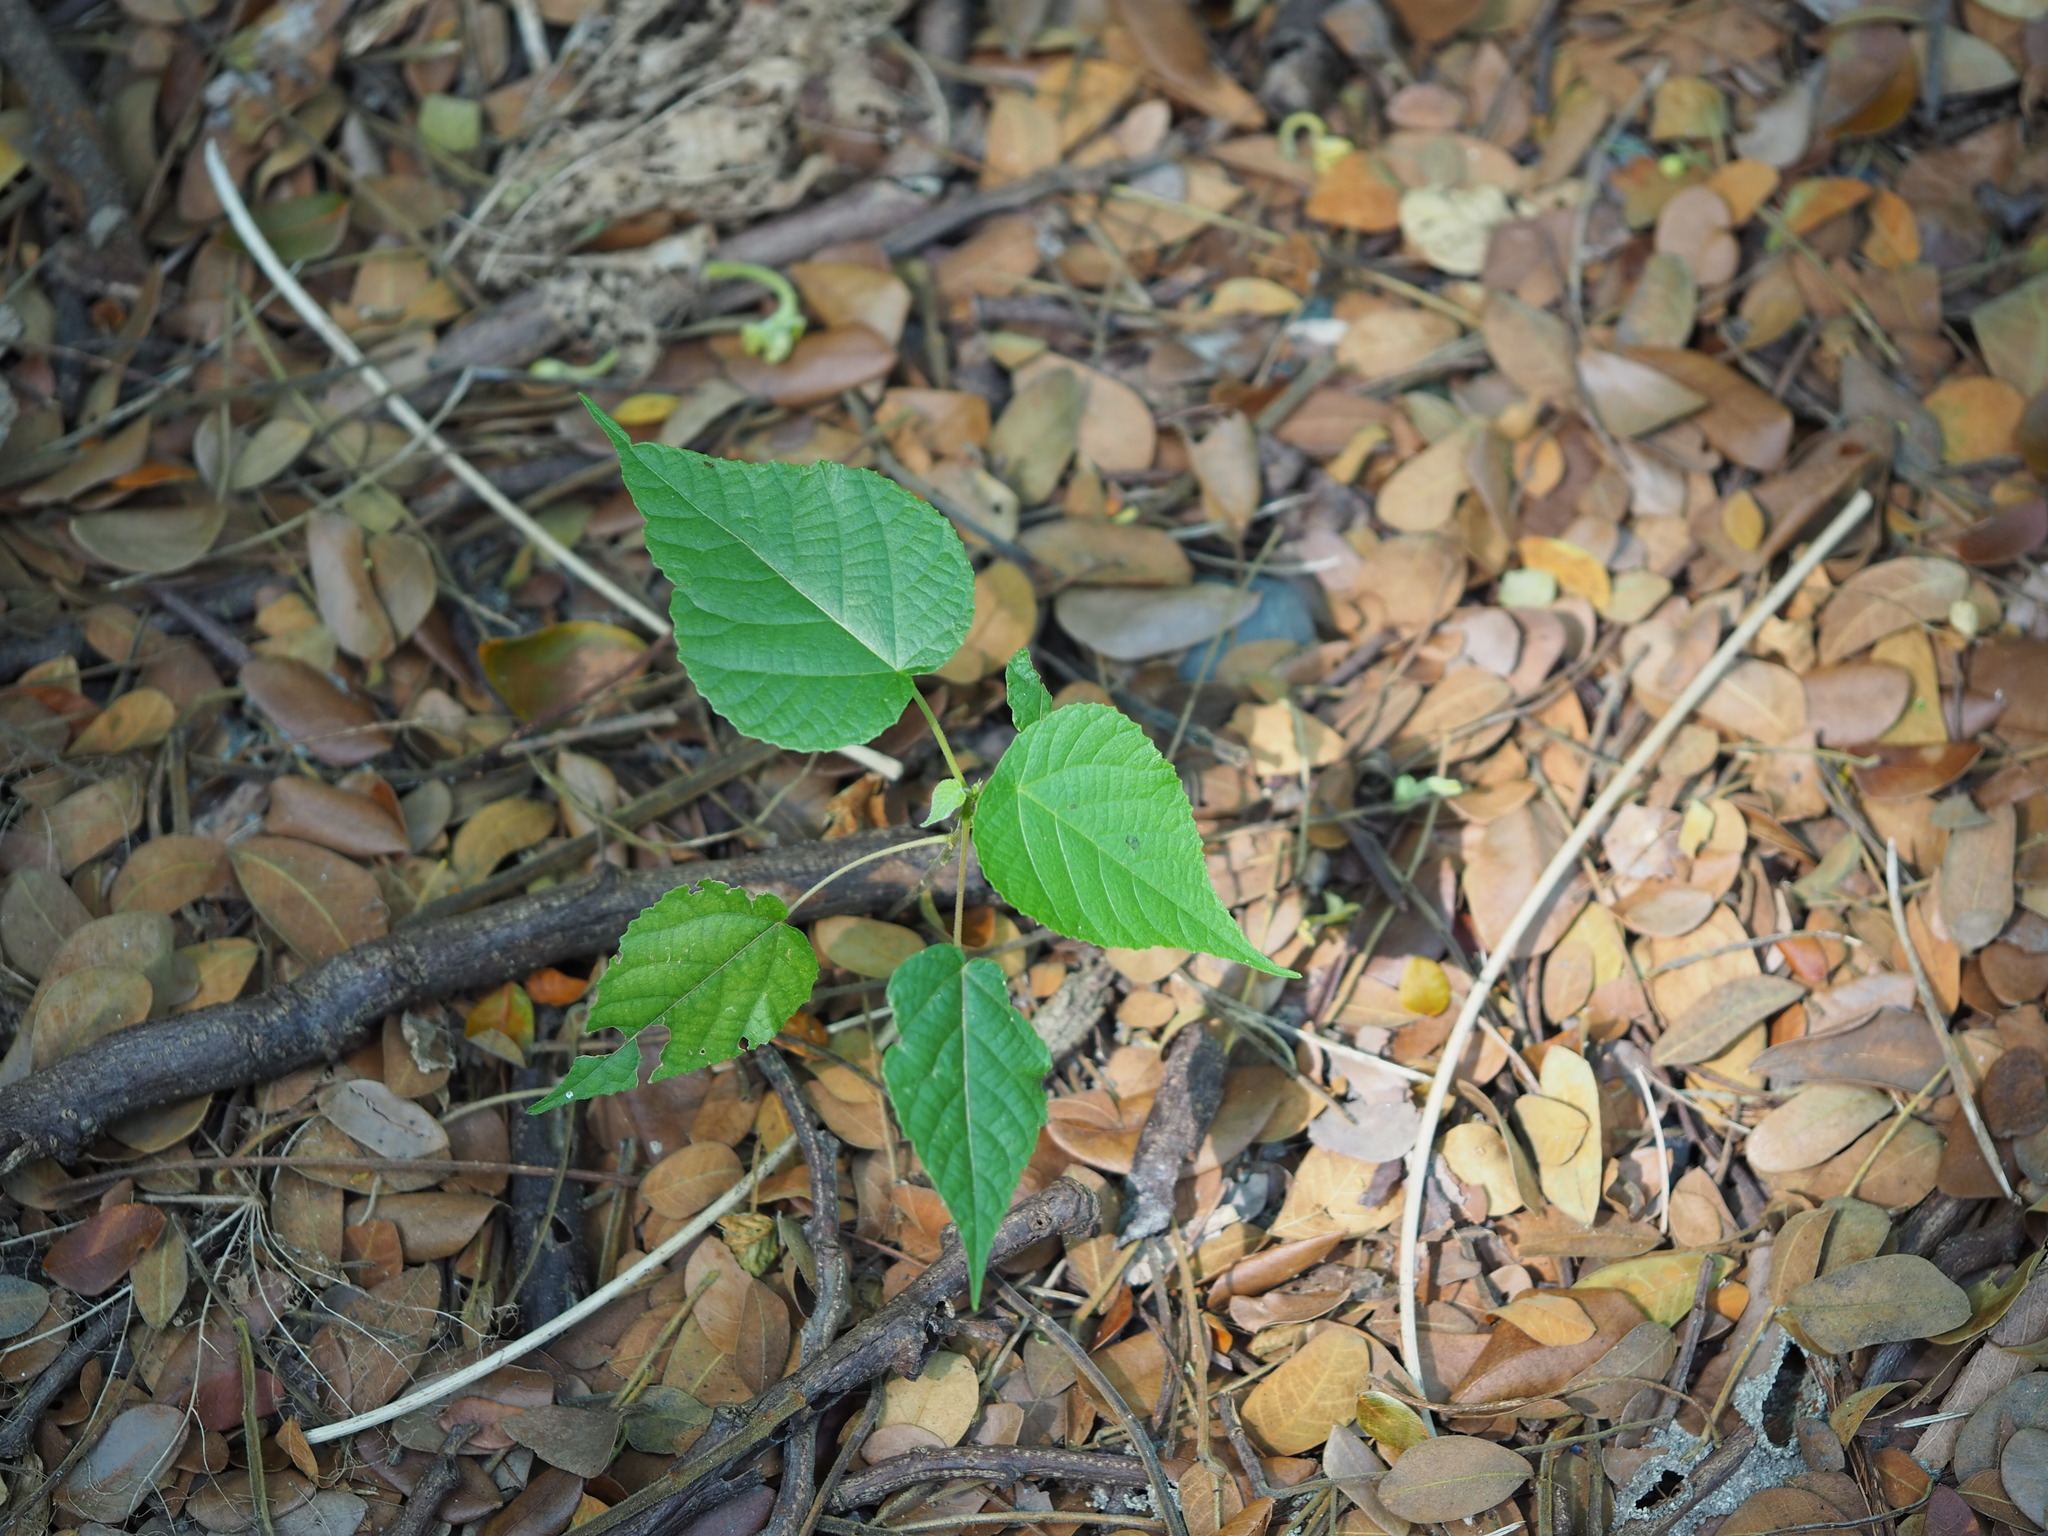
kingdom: Plantae
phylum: Tracheophyta
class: Magnoliopsida
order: Malpighiales
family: Euphorbiaceae
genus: Macaranga
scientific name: Macaranga tanarius
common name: Parasol leaf tree
